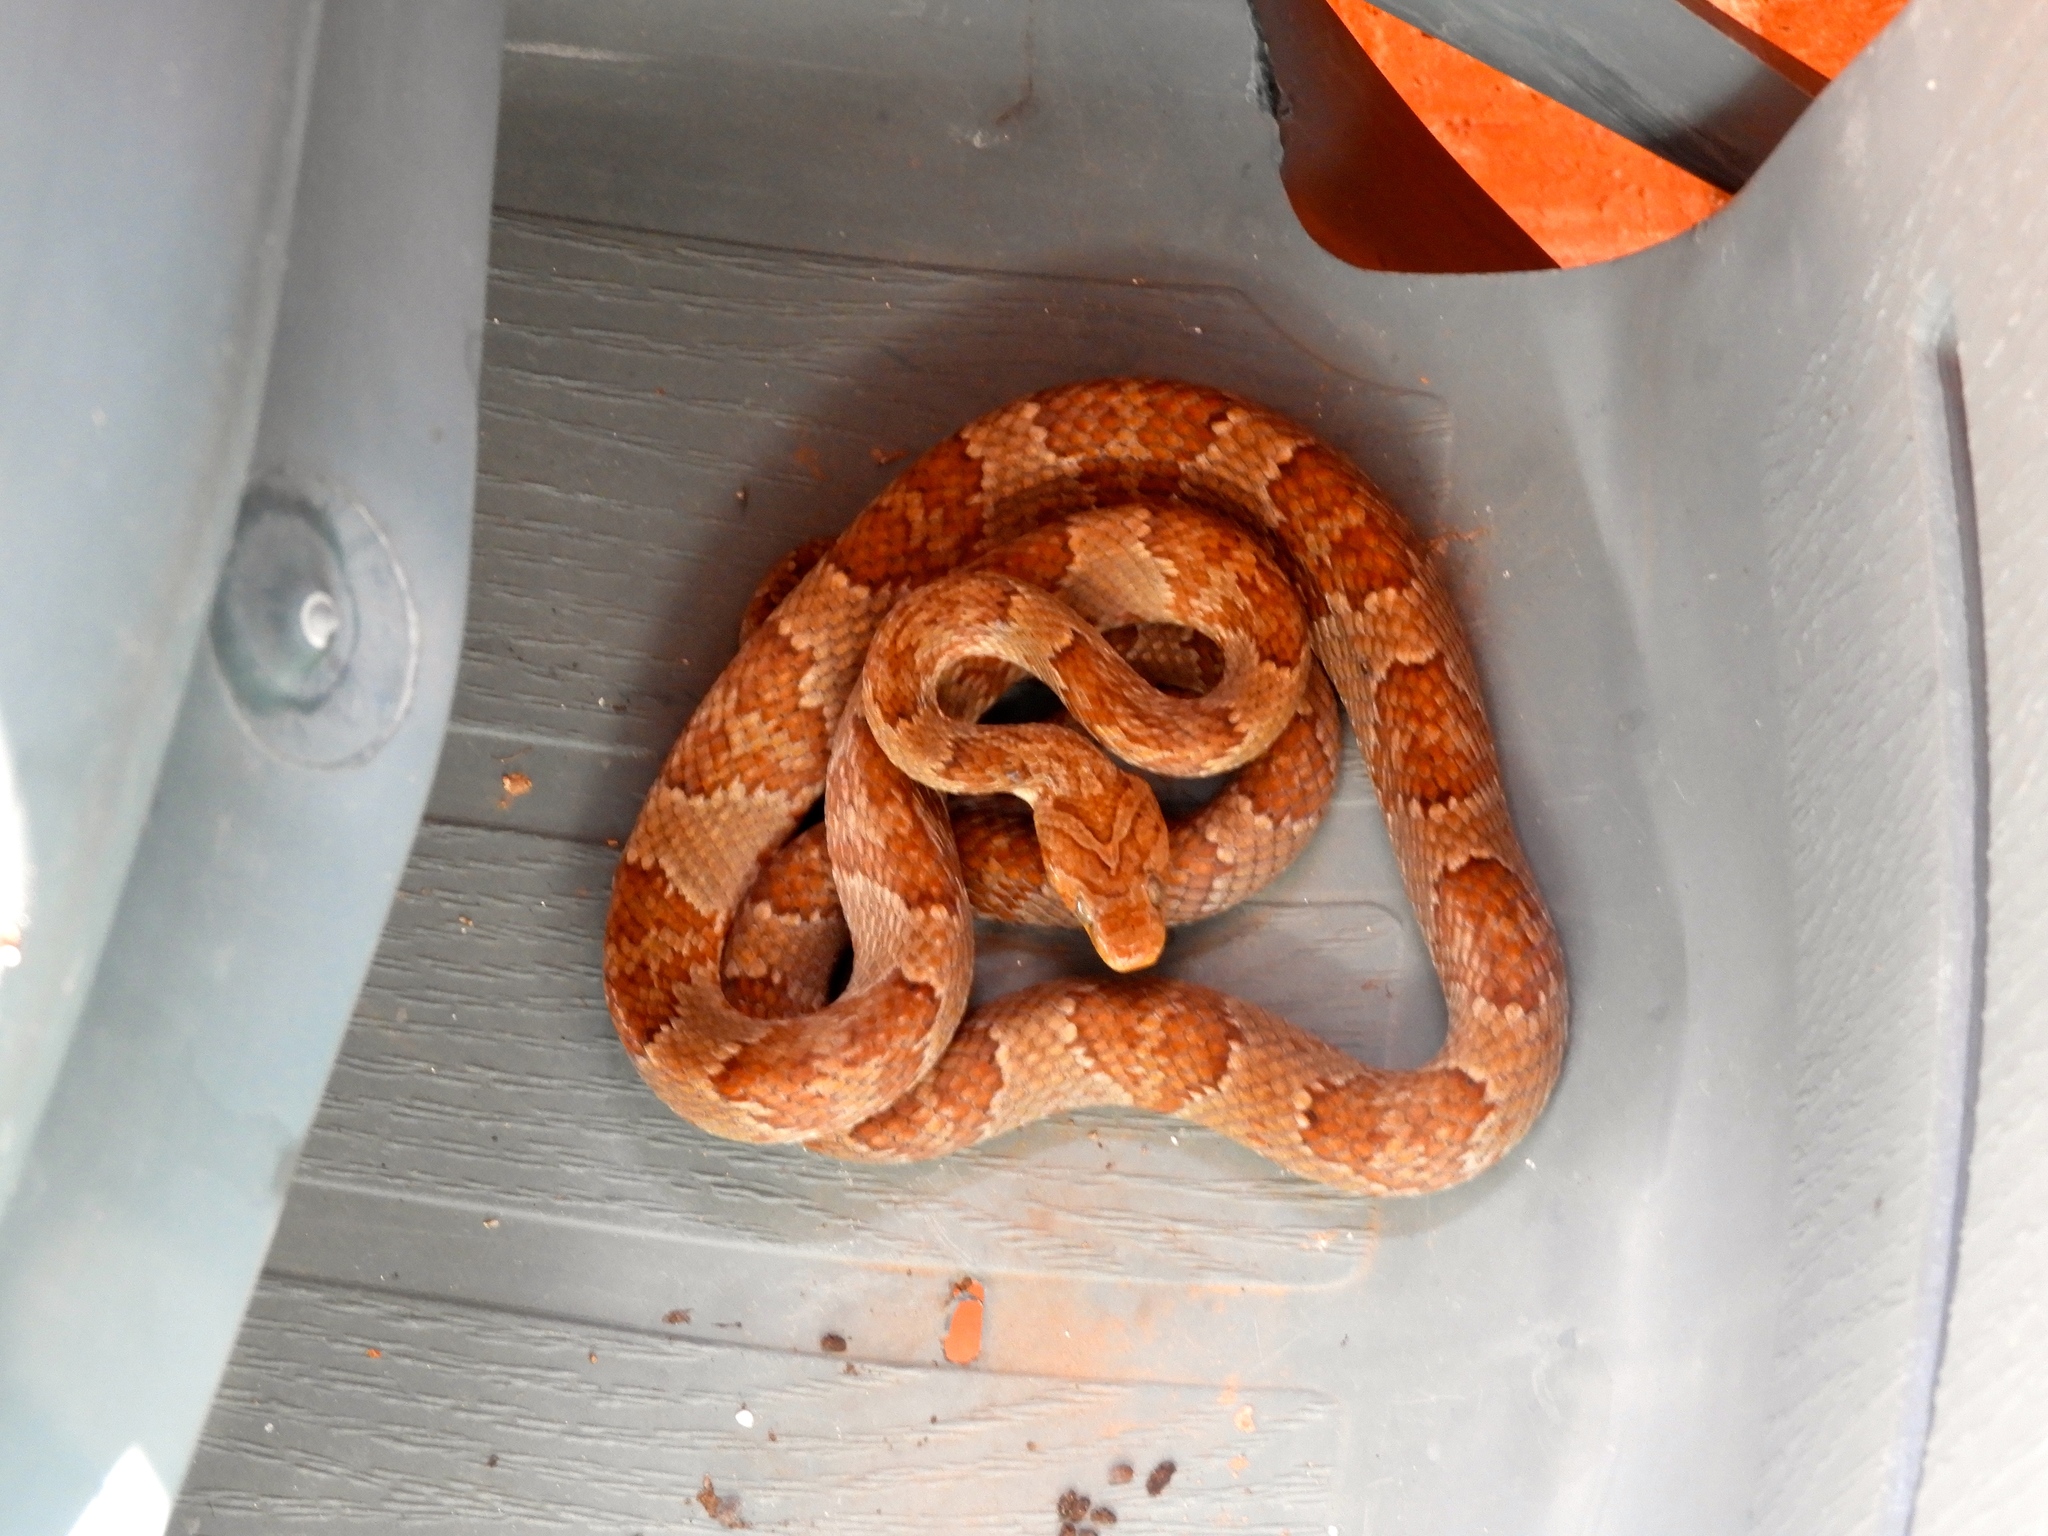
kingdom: Animalia
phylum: Chordata
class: Squamata
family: Colubridae
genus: Trimorphodon
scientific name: Trimorphodon paucimaculatus
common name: Sinaloan lyresnake
